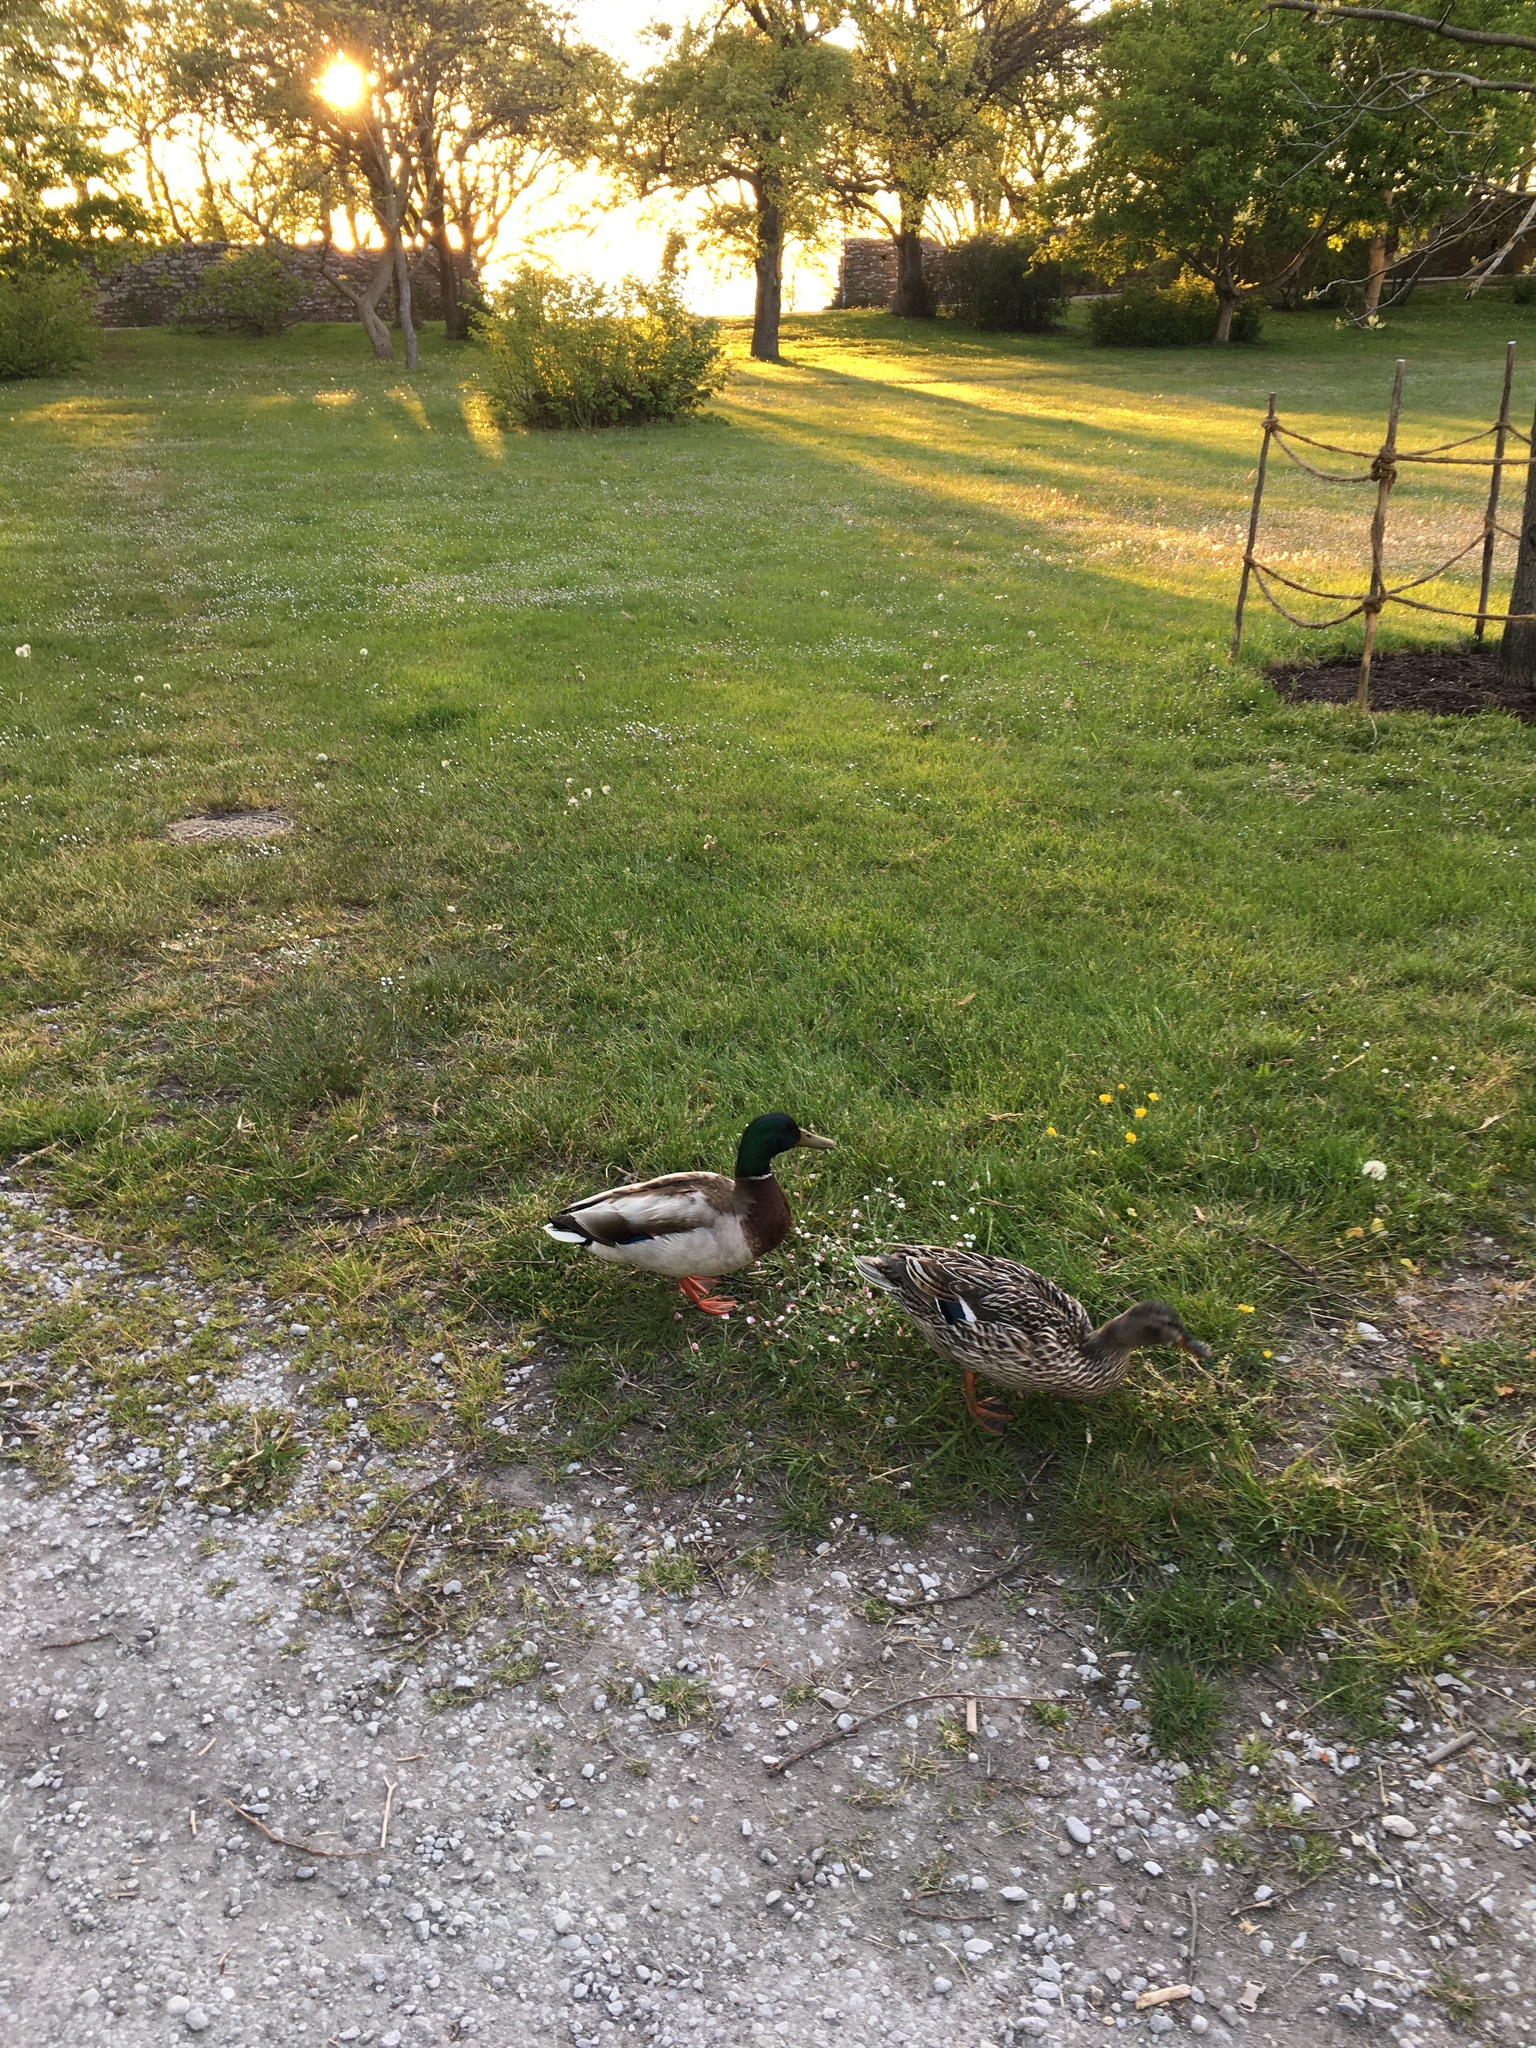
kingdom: Animalia
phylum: Chordata
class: Aves
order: Anseriformes
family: Anatidae
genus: Anas
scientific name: Anas platyrhynchos
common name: Mallard
